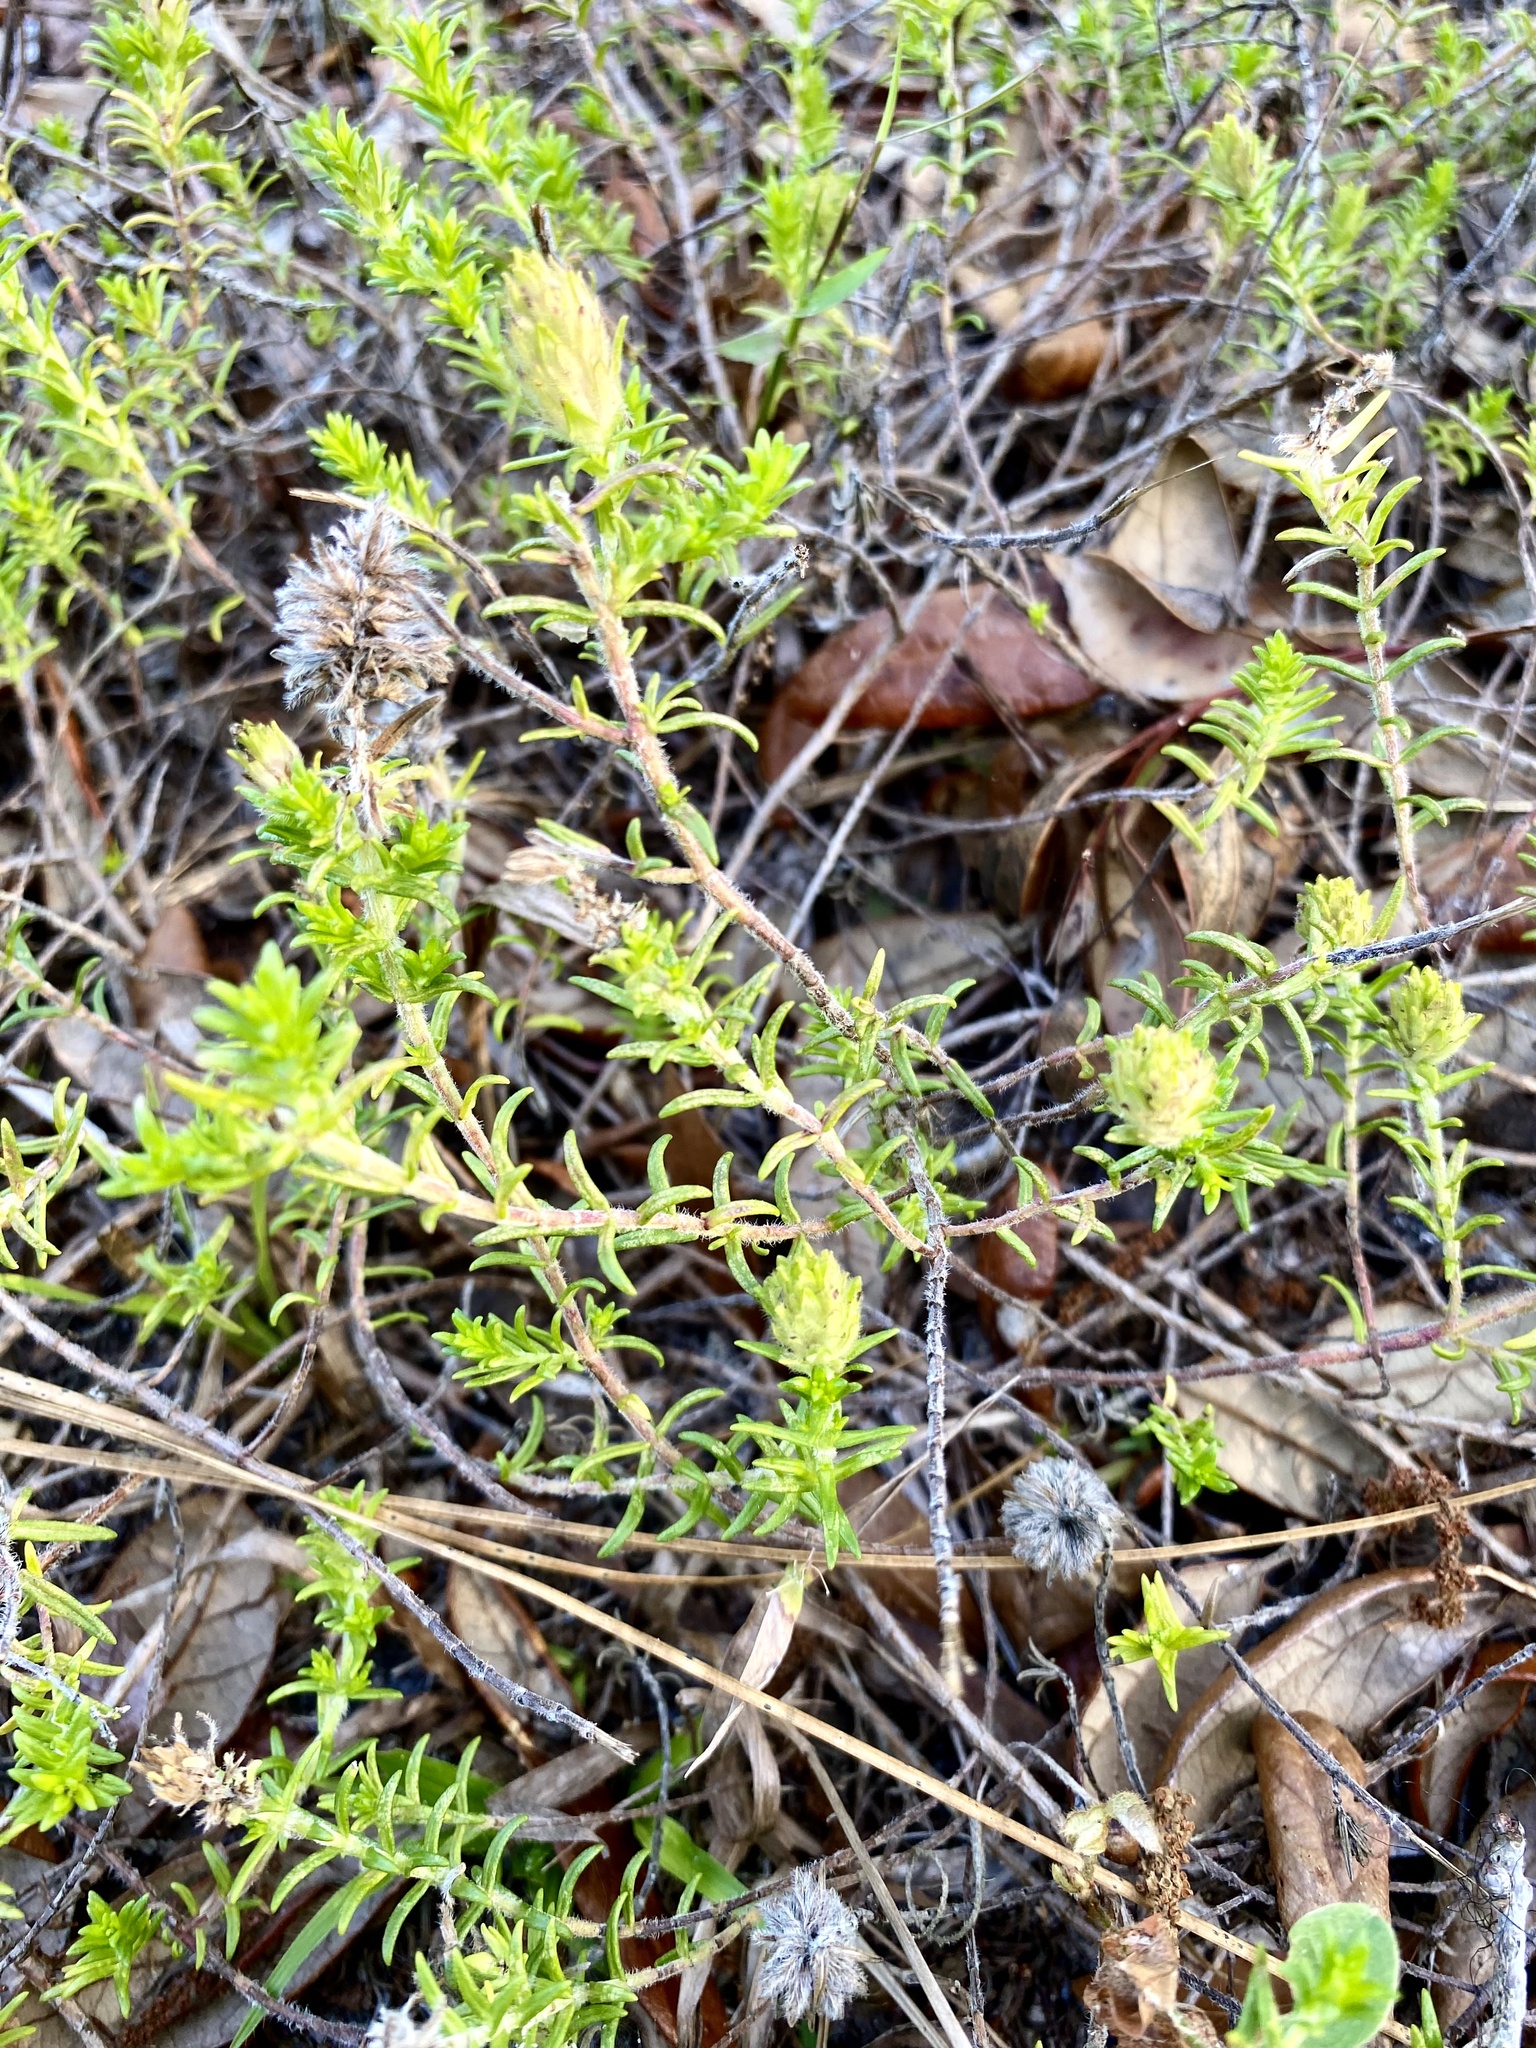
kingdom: Plantae
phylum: Tracheophyta
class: Magnoliopsida
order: Lamiales
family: Lamiaceae
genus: Piloblephis
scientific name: Piloblephis rigida
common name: Wild pennyroyal
